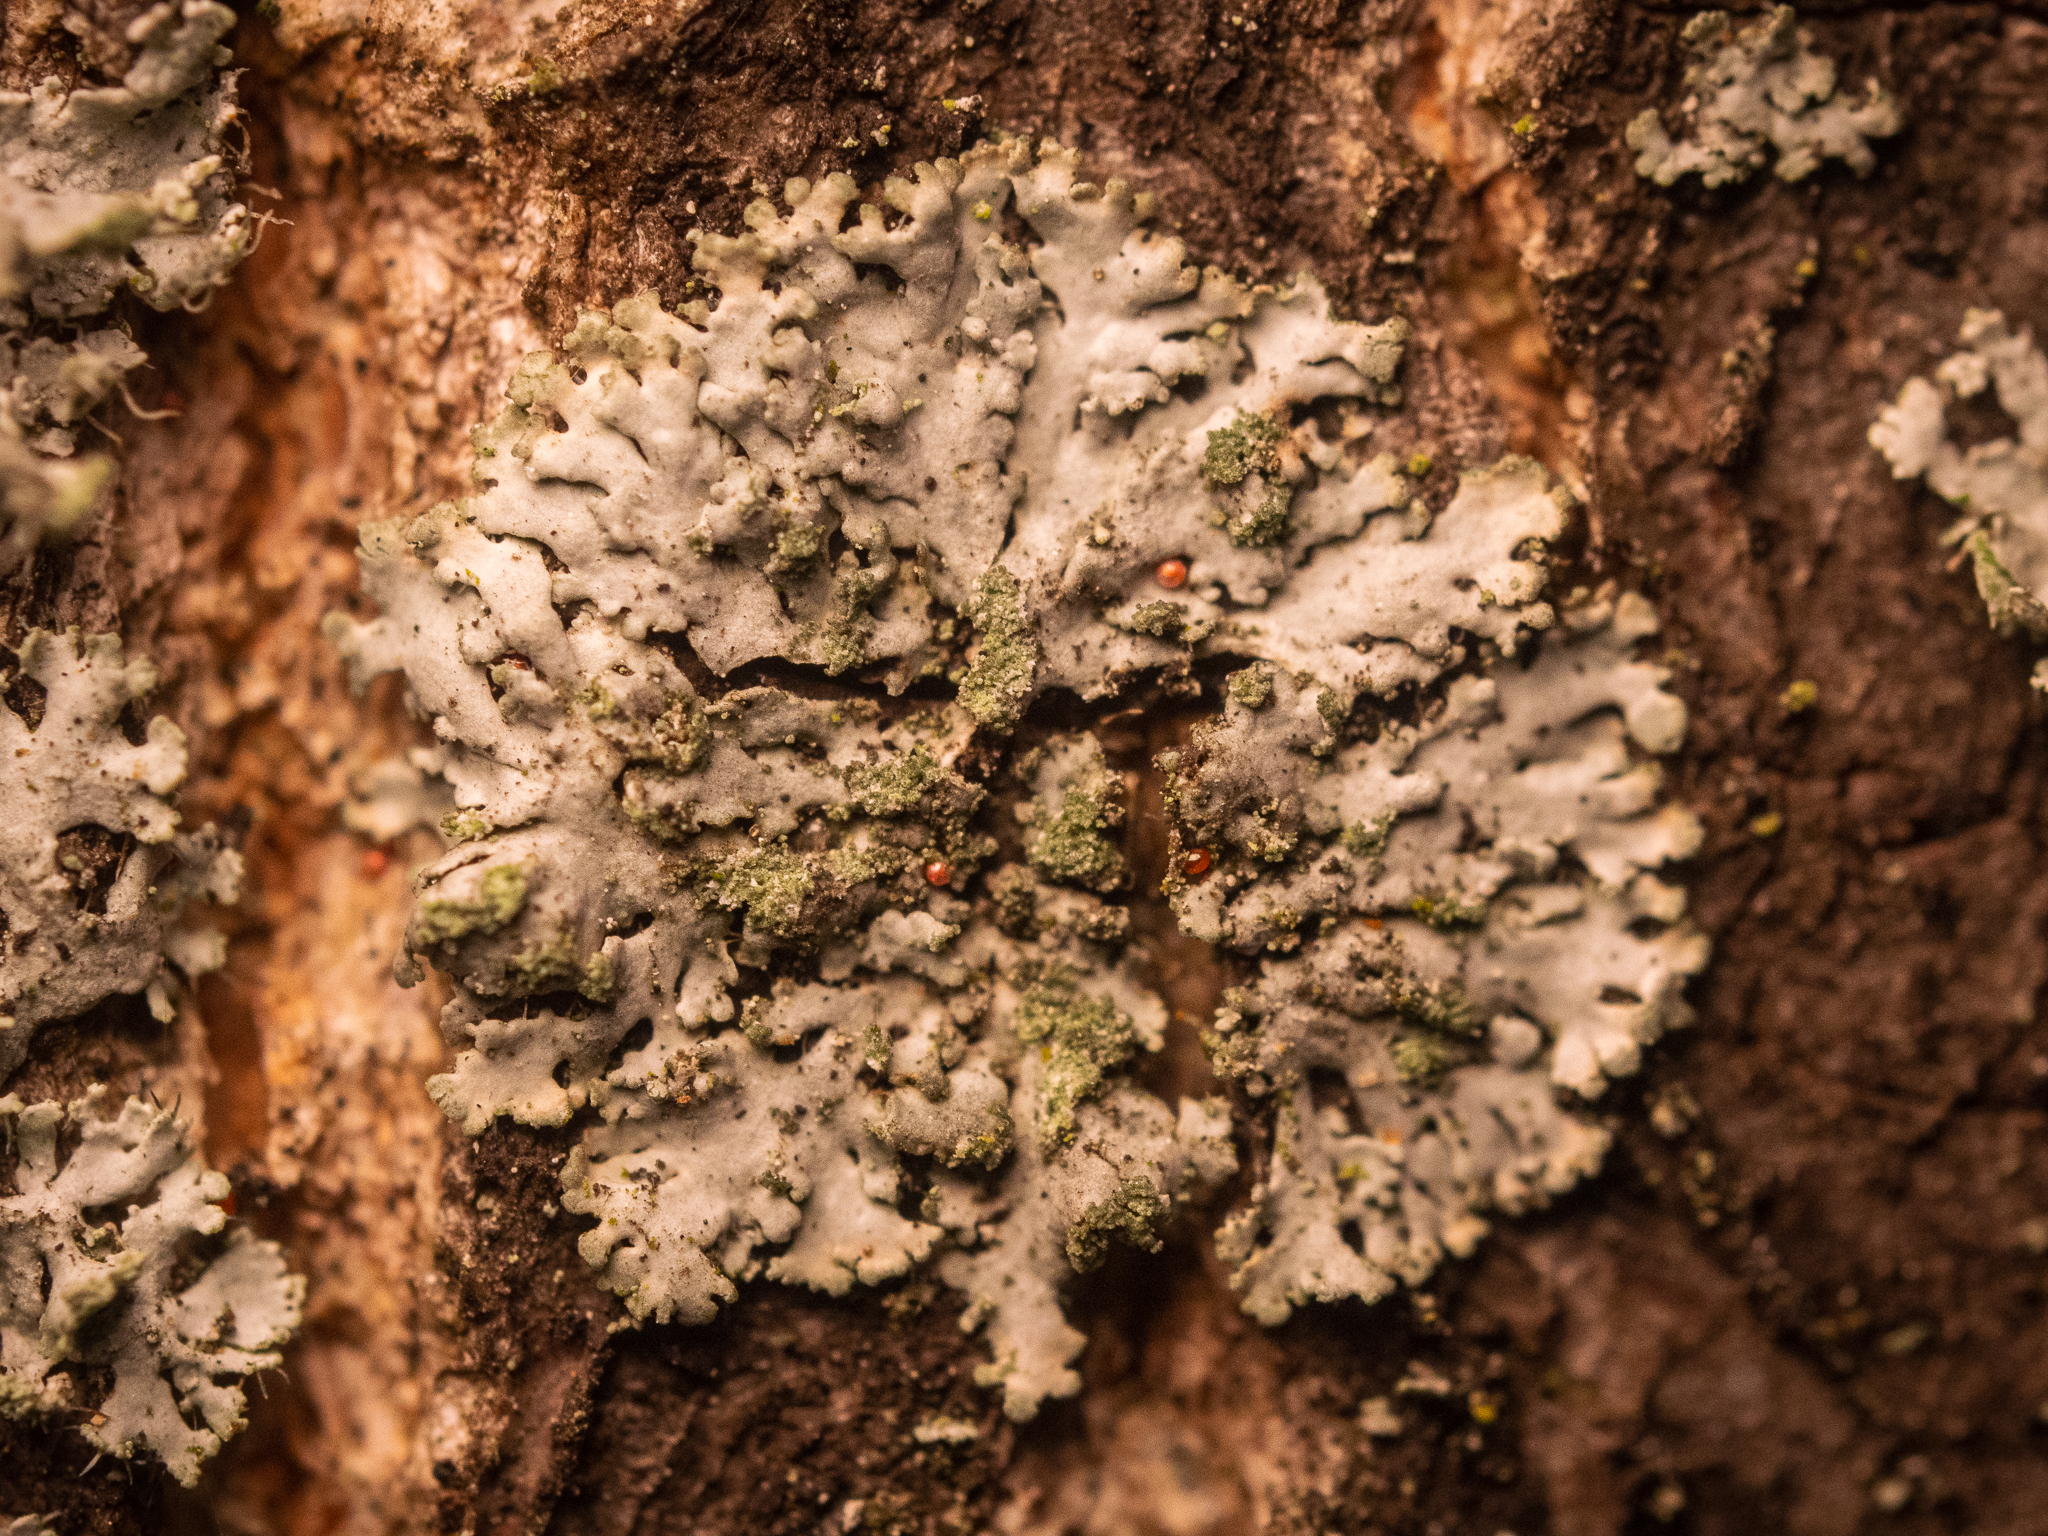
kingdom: Fungi
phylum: Ascomycota
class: Lecanoromycetes
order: Caliciales
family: Physciaceae
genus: Phaeophyscia
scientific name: Phaeophyscia orbicularis
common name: Mealy shadow lichen
